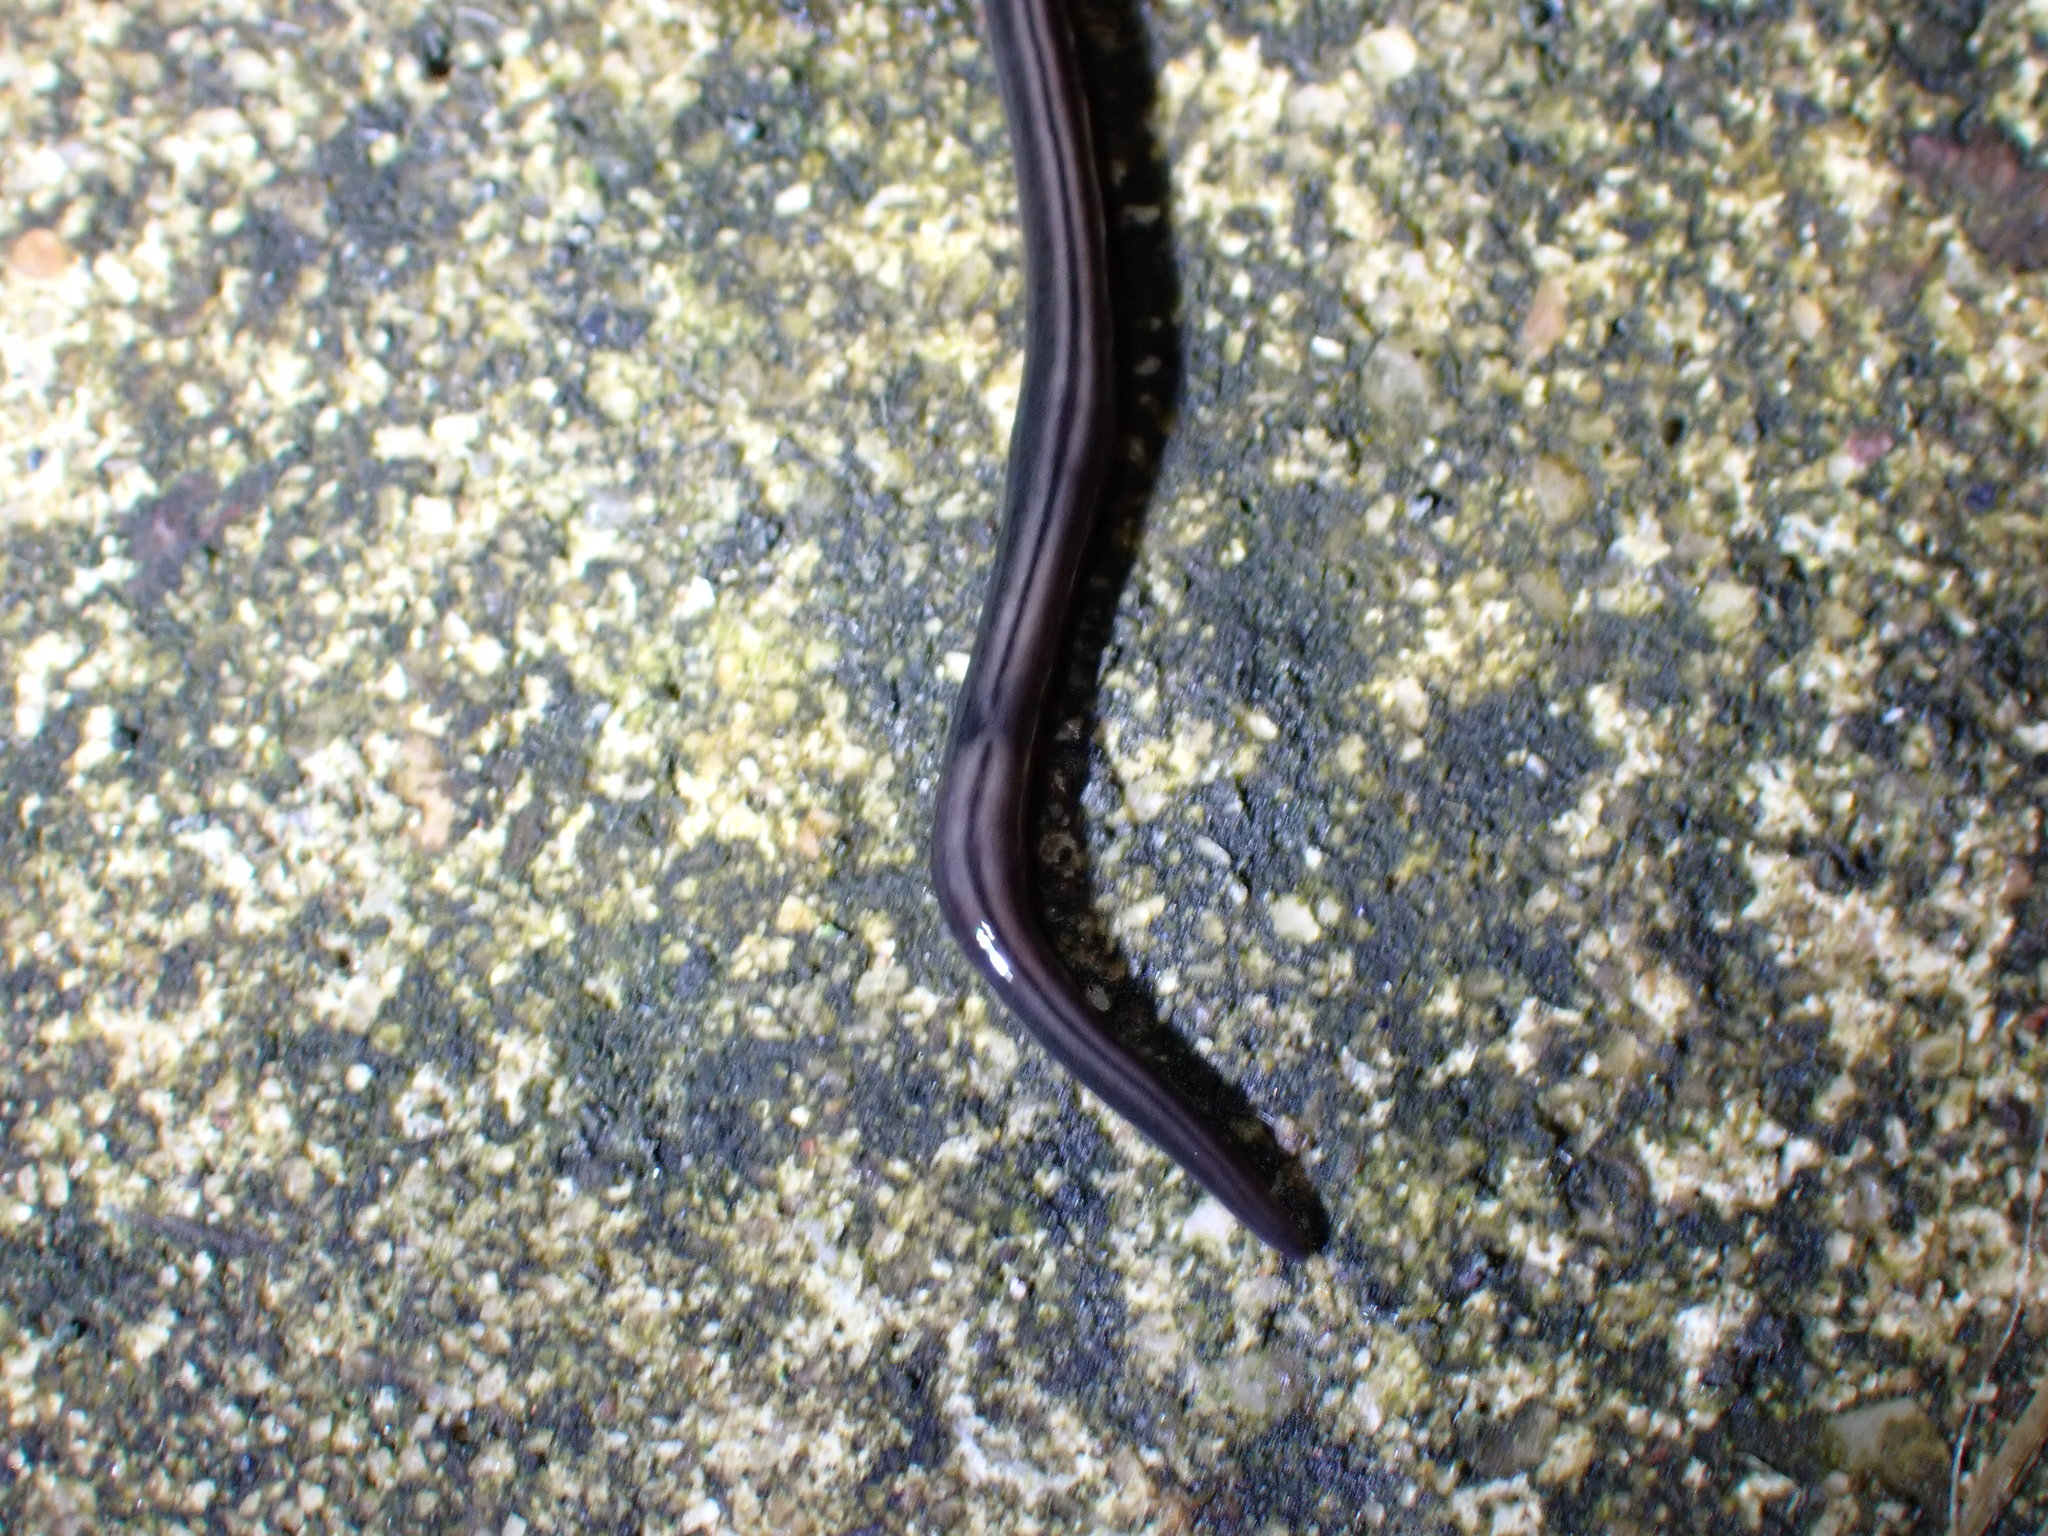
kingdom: Animalia
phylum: Platyhelminthes
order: Tricladida
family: Geoplanidae
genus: Parakontikia
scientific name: Parakontikia ventrolineata
